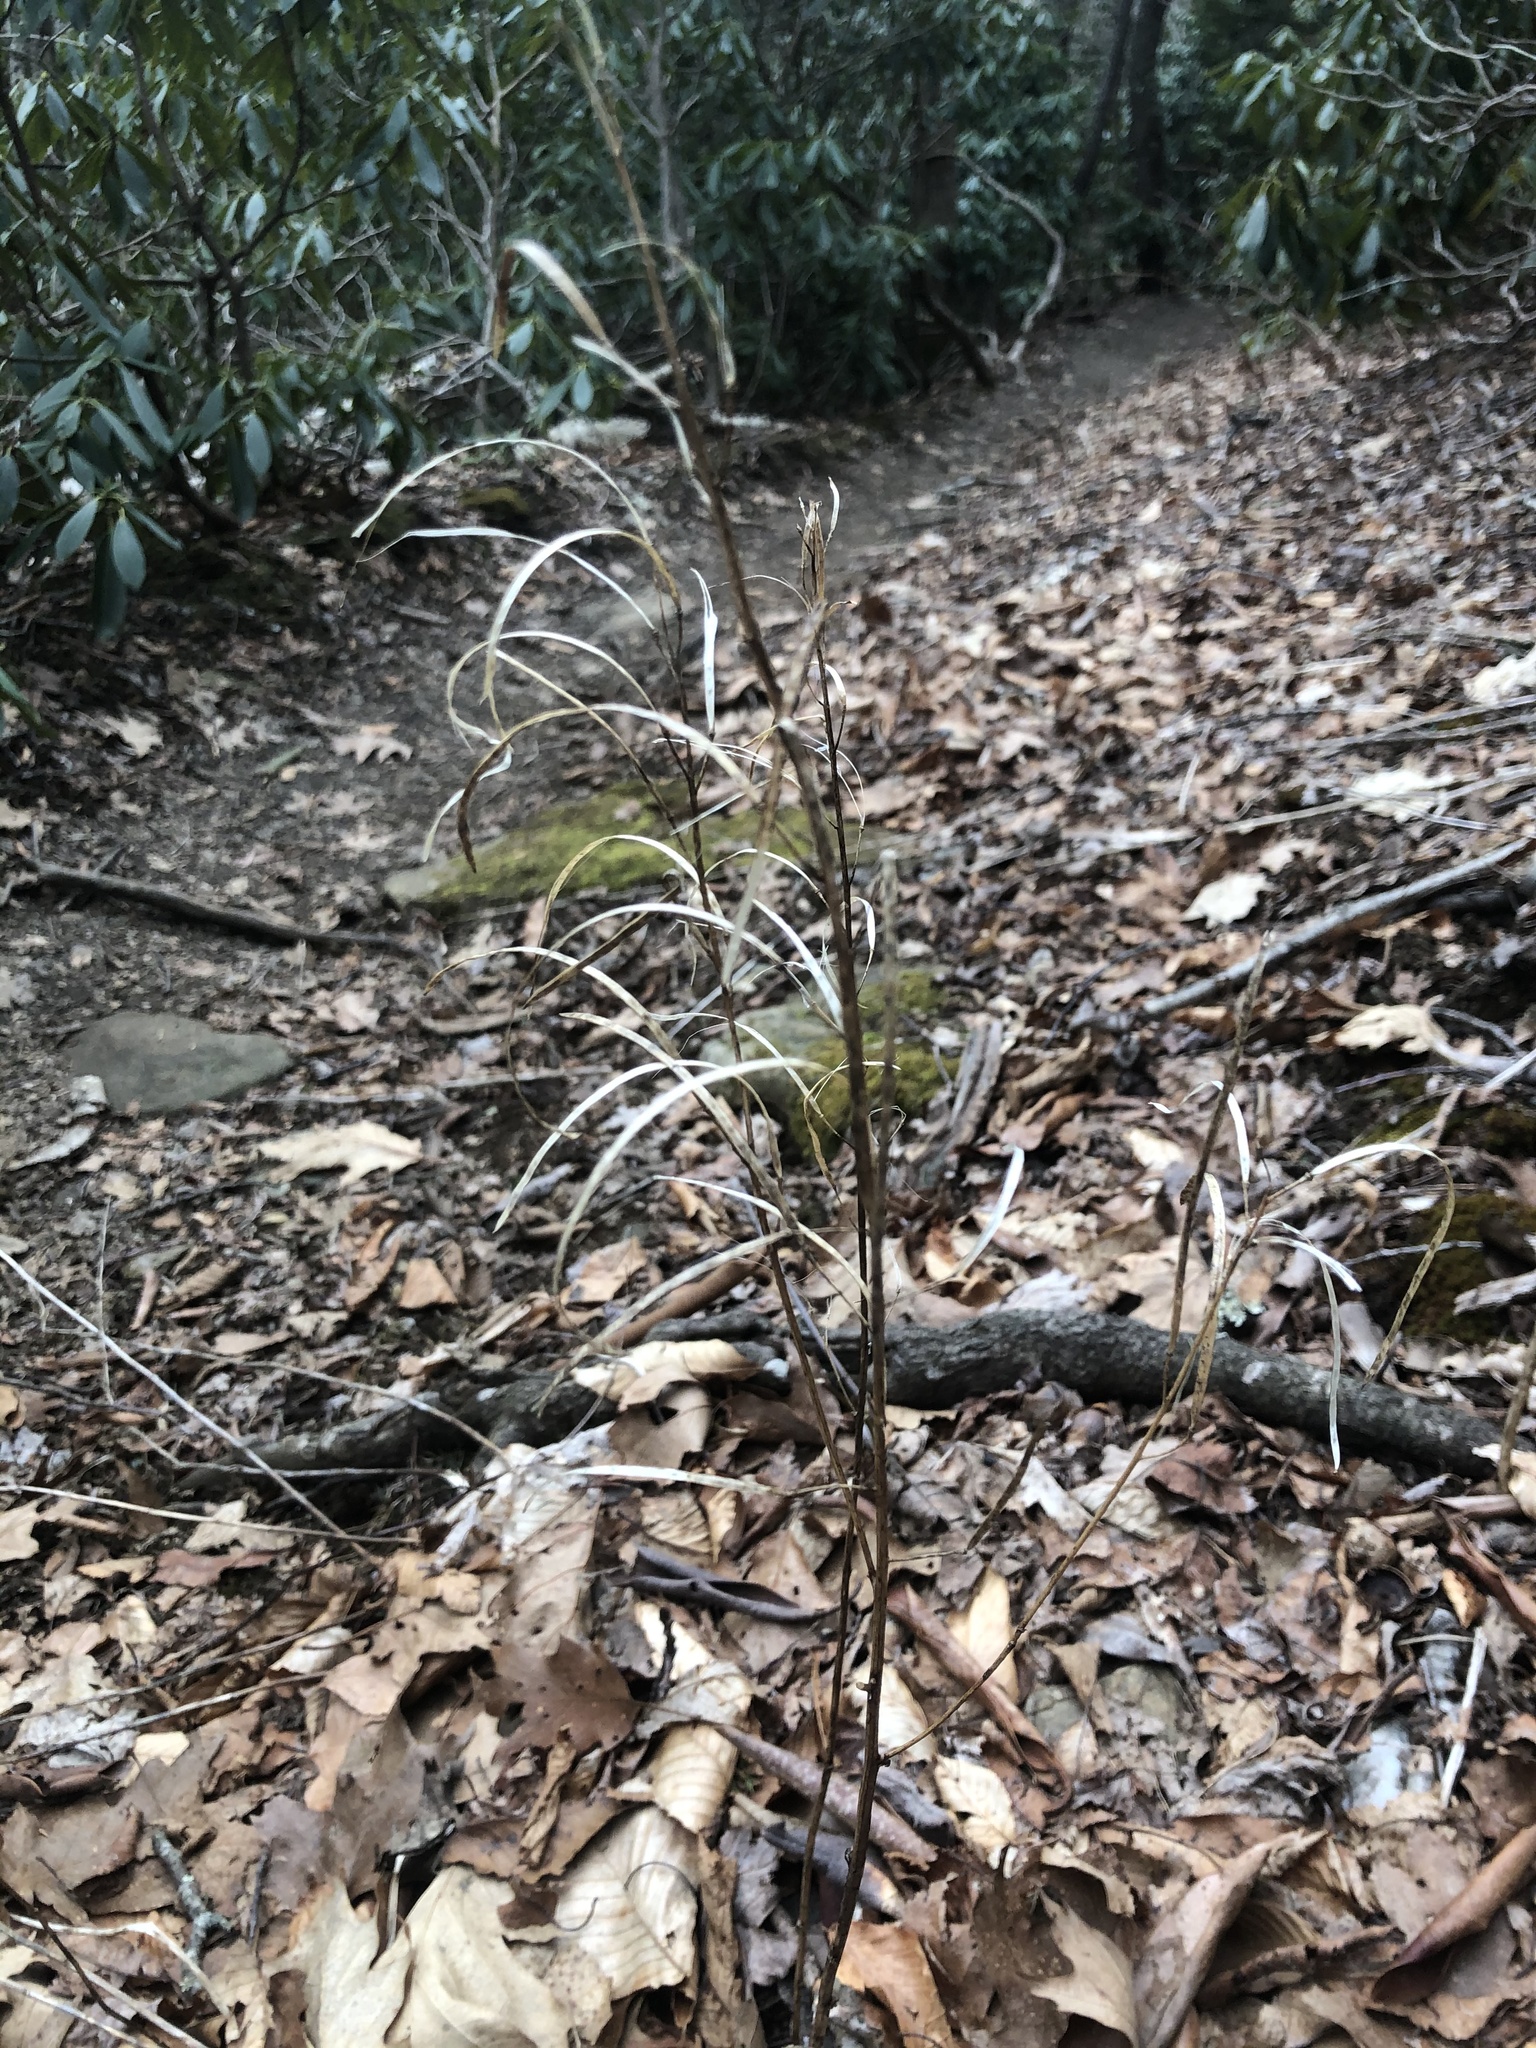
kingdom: Plantae
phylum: Tracheophyta
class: Magnoliopsida
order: Brassicales
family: Brassicaceae
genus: Borodinia
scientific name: Borodinia laevigata
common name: Smooth rockcress
